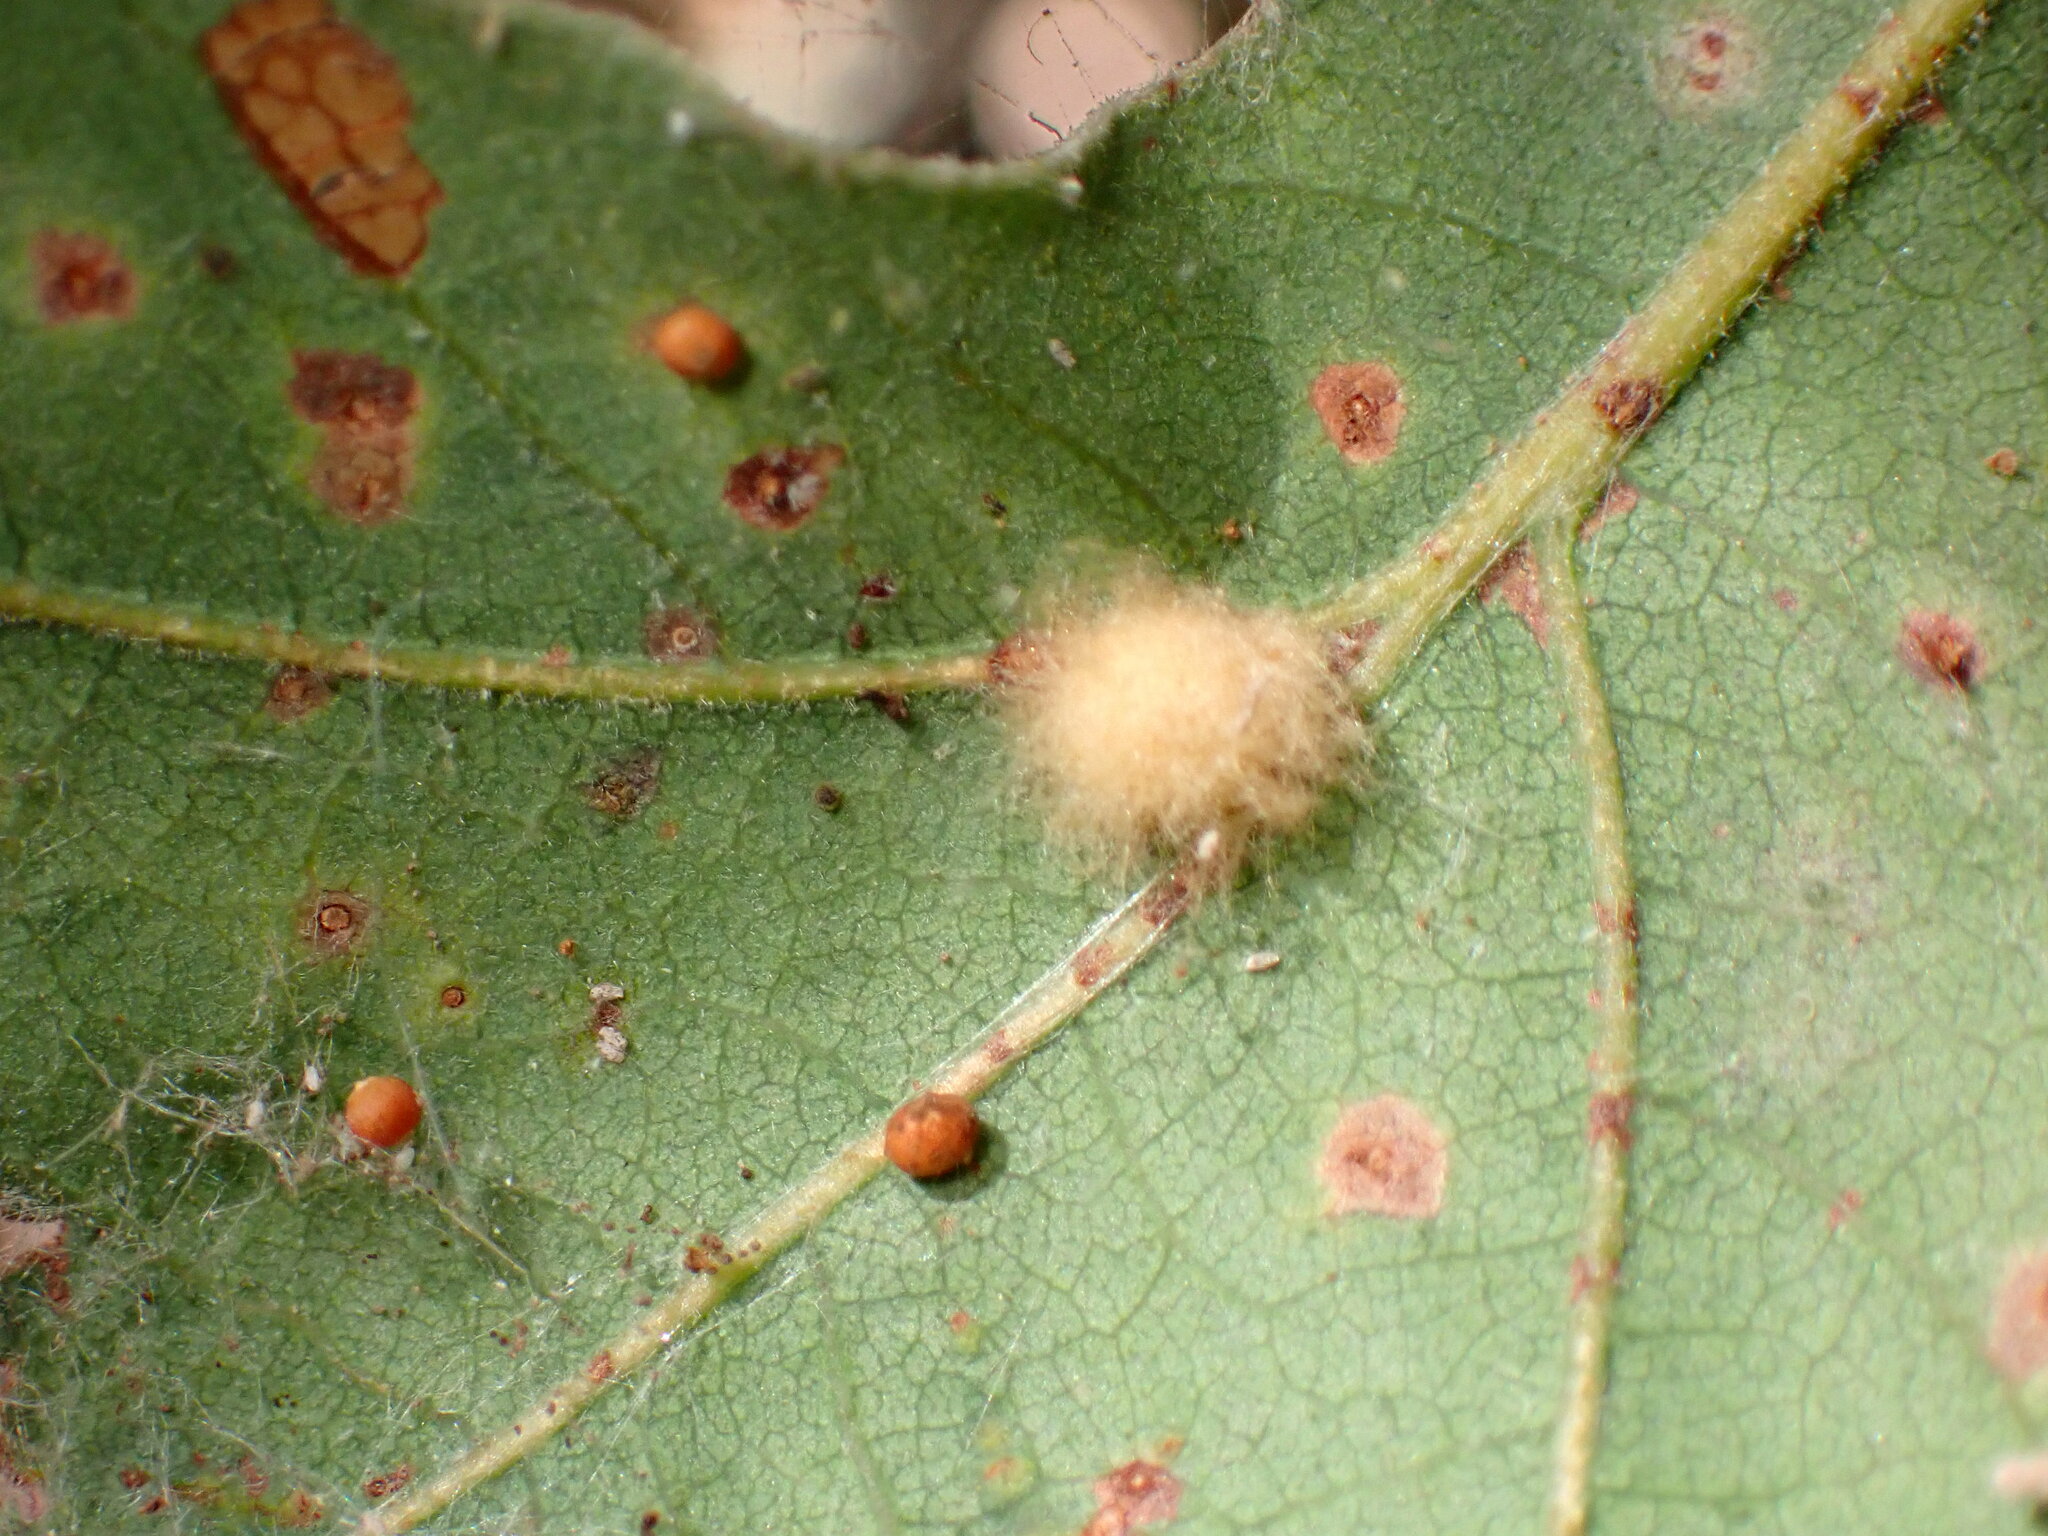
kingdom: Animalia
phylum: Arthropoda
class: Insecta
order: Hymenoptera
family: Cynipidae
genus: Andricus
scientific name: Andricus Druon fullawayi
